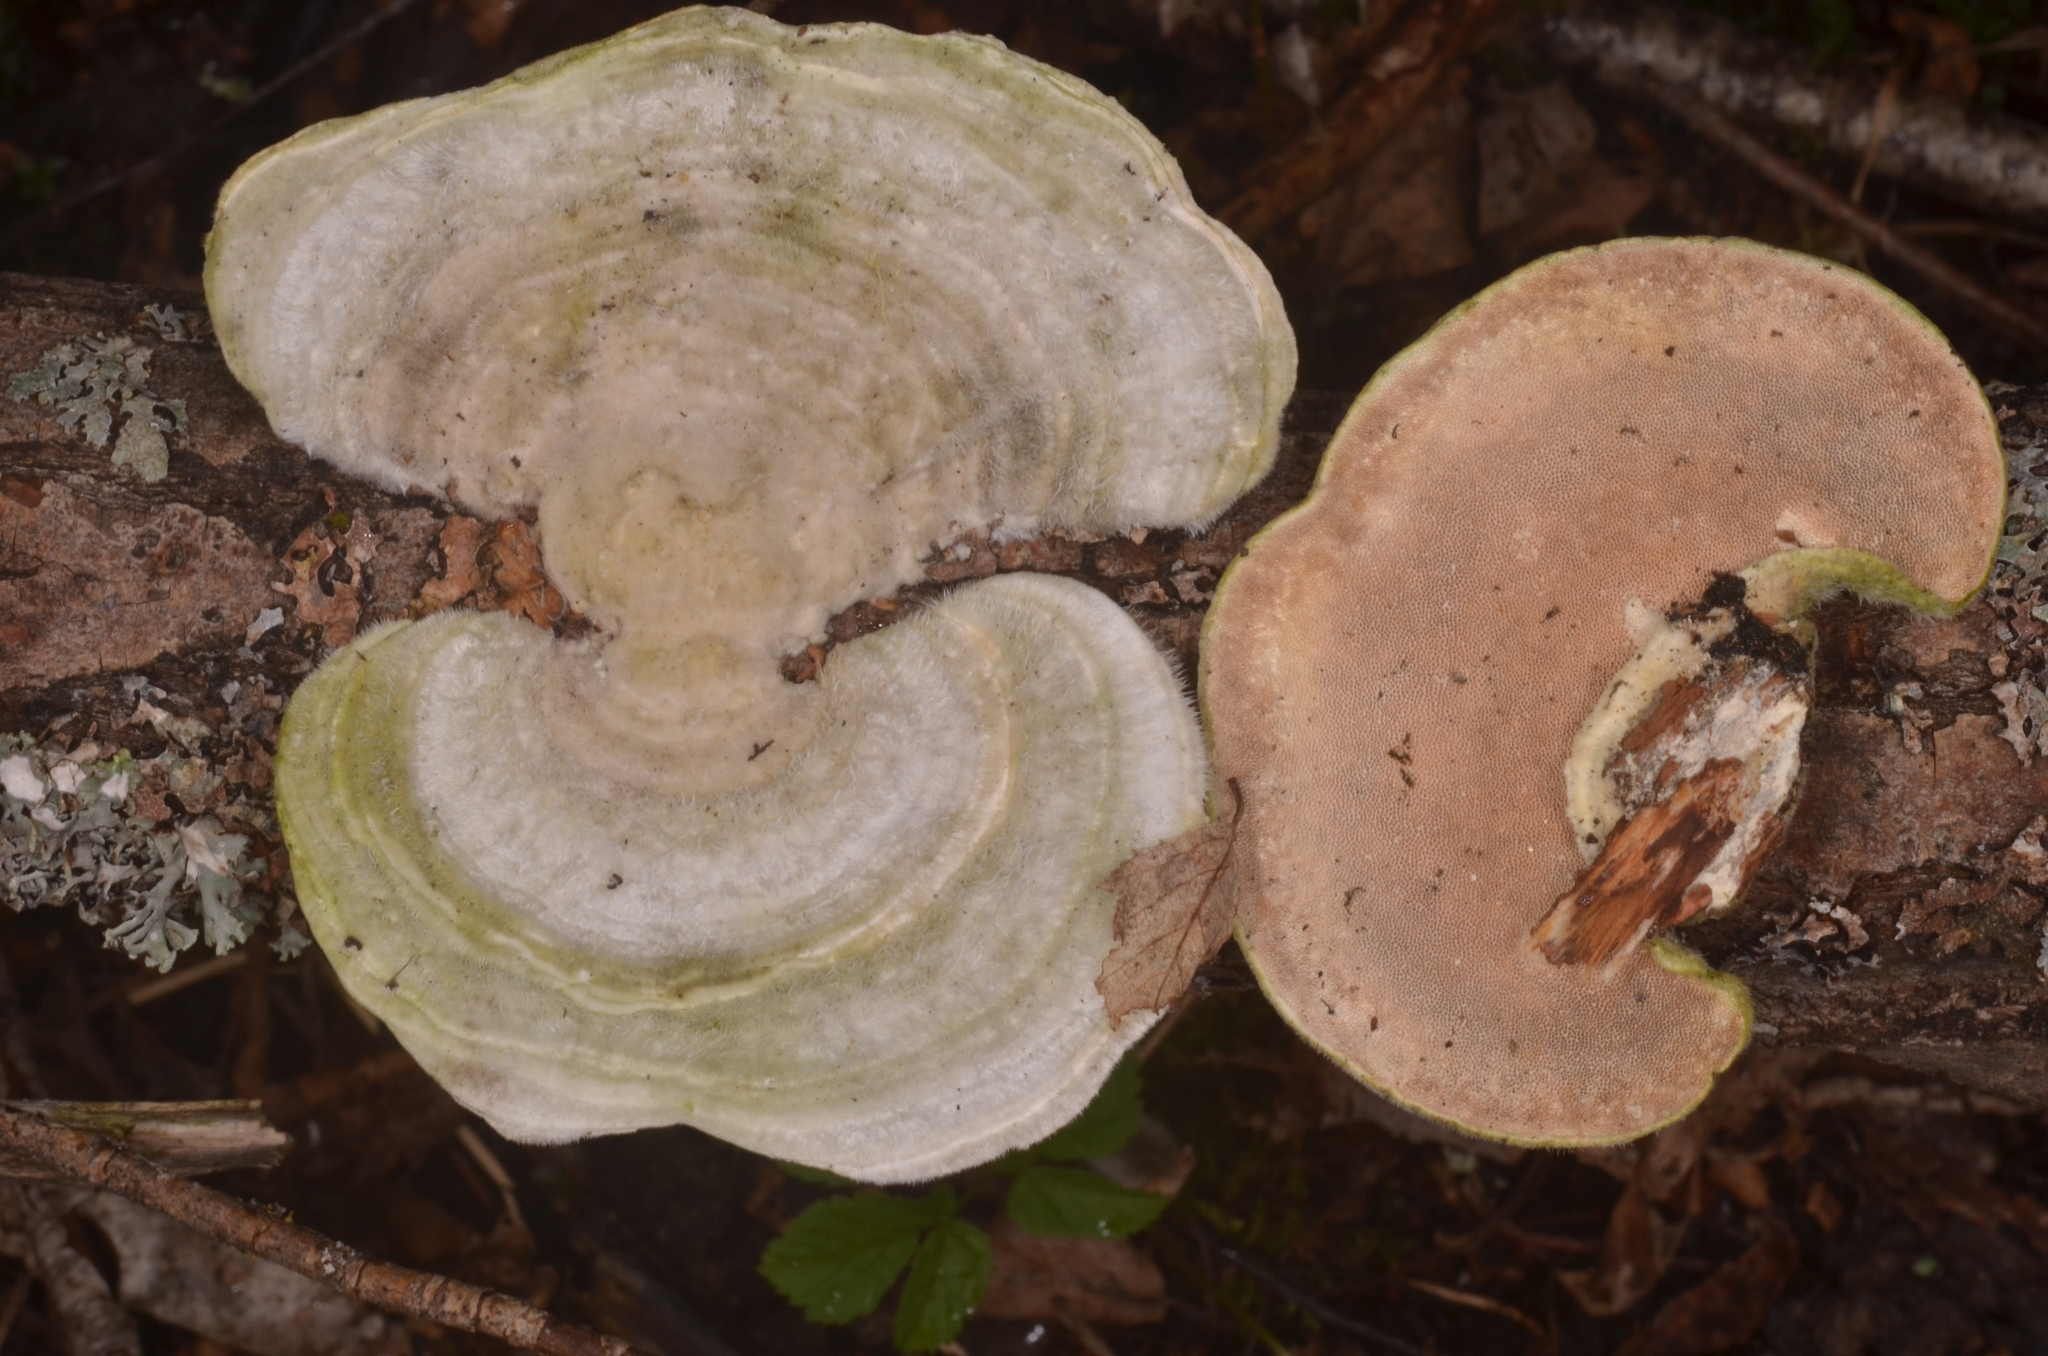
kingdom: Fungi
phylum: Basidiomycota
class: Agaricomycetes
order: Polyporales
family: Polyporaceae
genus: Trametes
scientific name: Trametes hirsuta
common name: Hairy bracket
